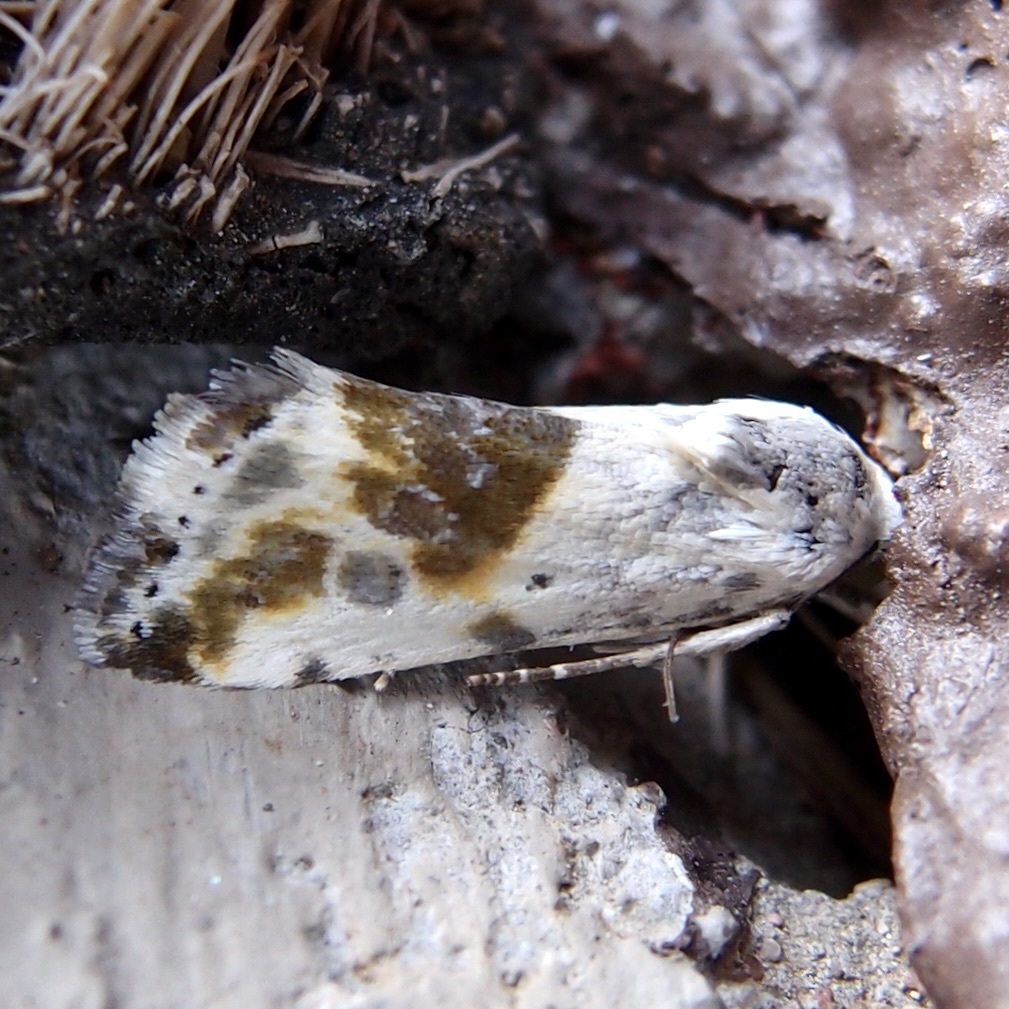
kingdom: Animalia
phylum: Arthropoda
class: Insecta
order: Lepidoptera
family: Noctuidae
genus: Acontia
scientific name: Acontia candefacta
